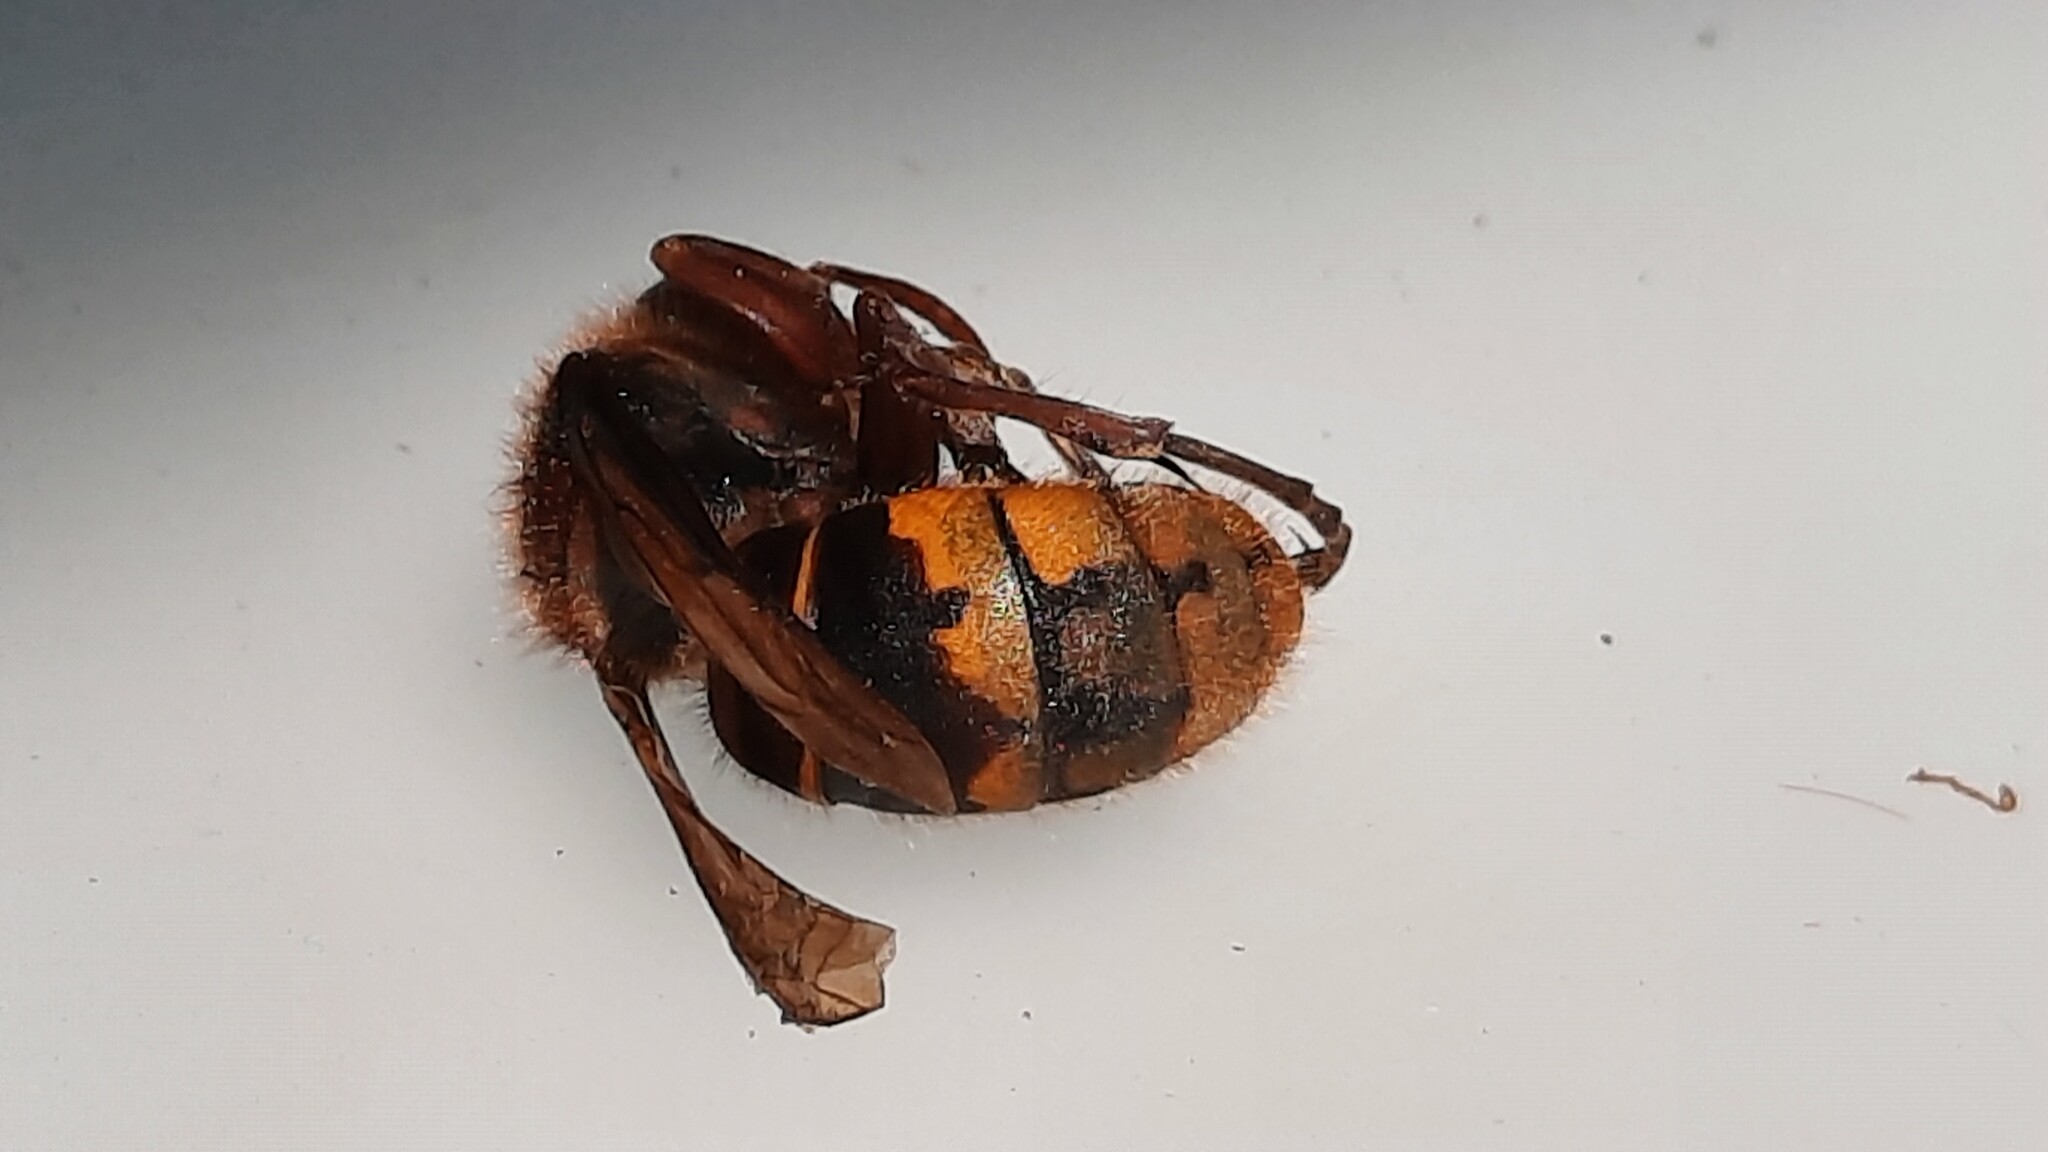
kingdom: Animalia
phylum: Arthropoda
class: Insecta
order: Hymenoptera
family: Vespidae
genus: Vespa
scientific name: Vespa crabro
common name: Hornet
